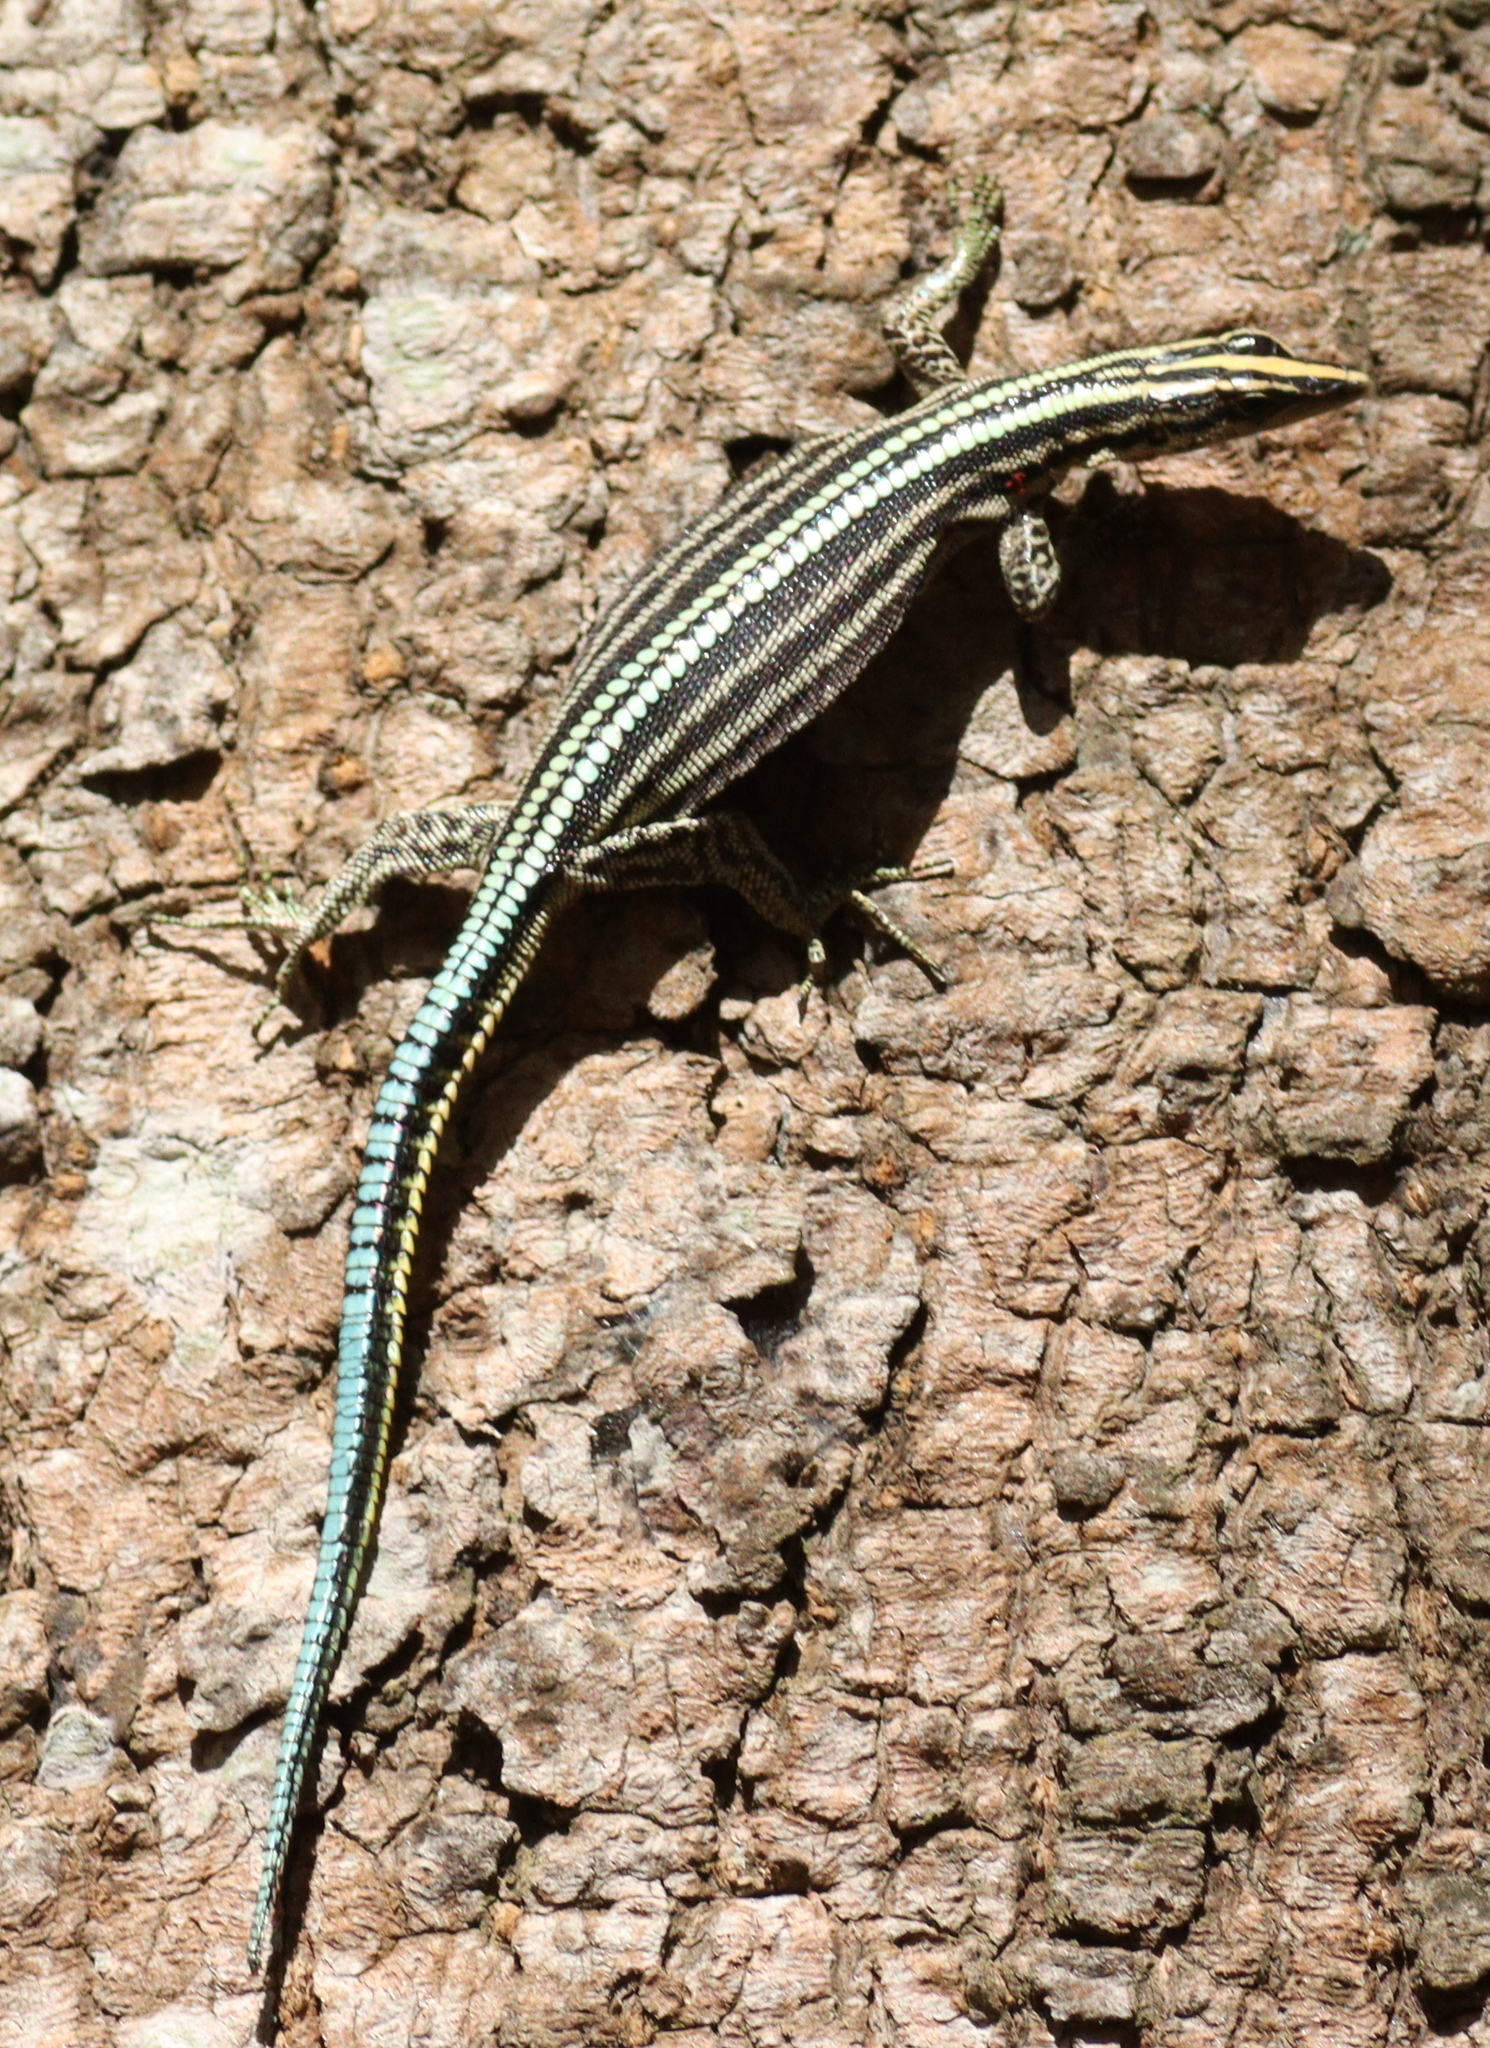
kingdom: Animalia
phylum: Chordata
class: Squamata
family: Lacertidae
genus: Holaspis
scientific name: Holaspis guentheri
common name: Sawtail lizard
